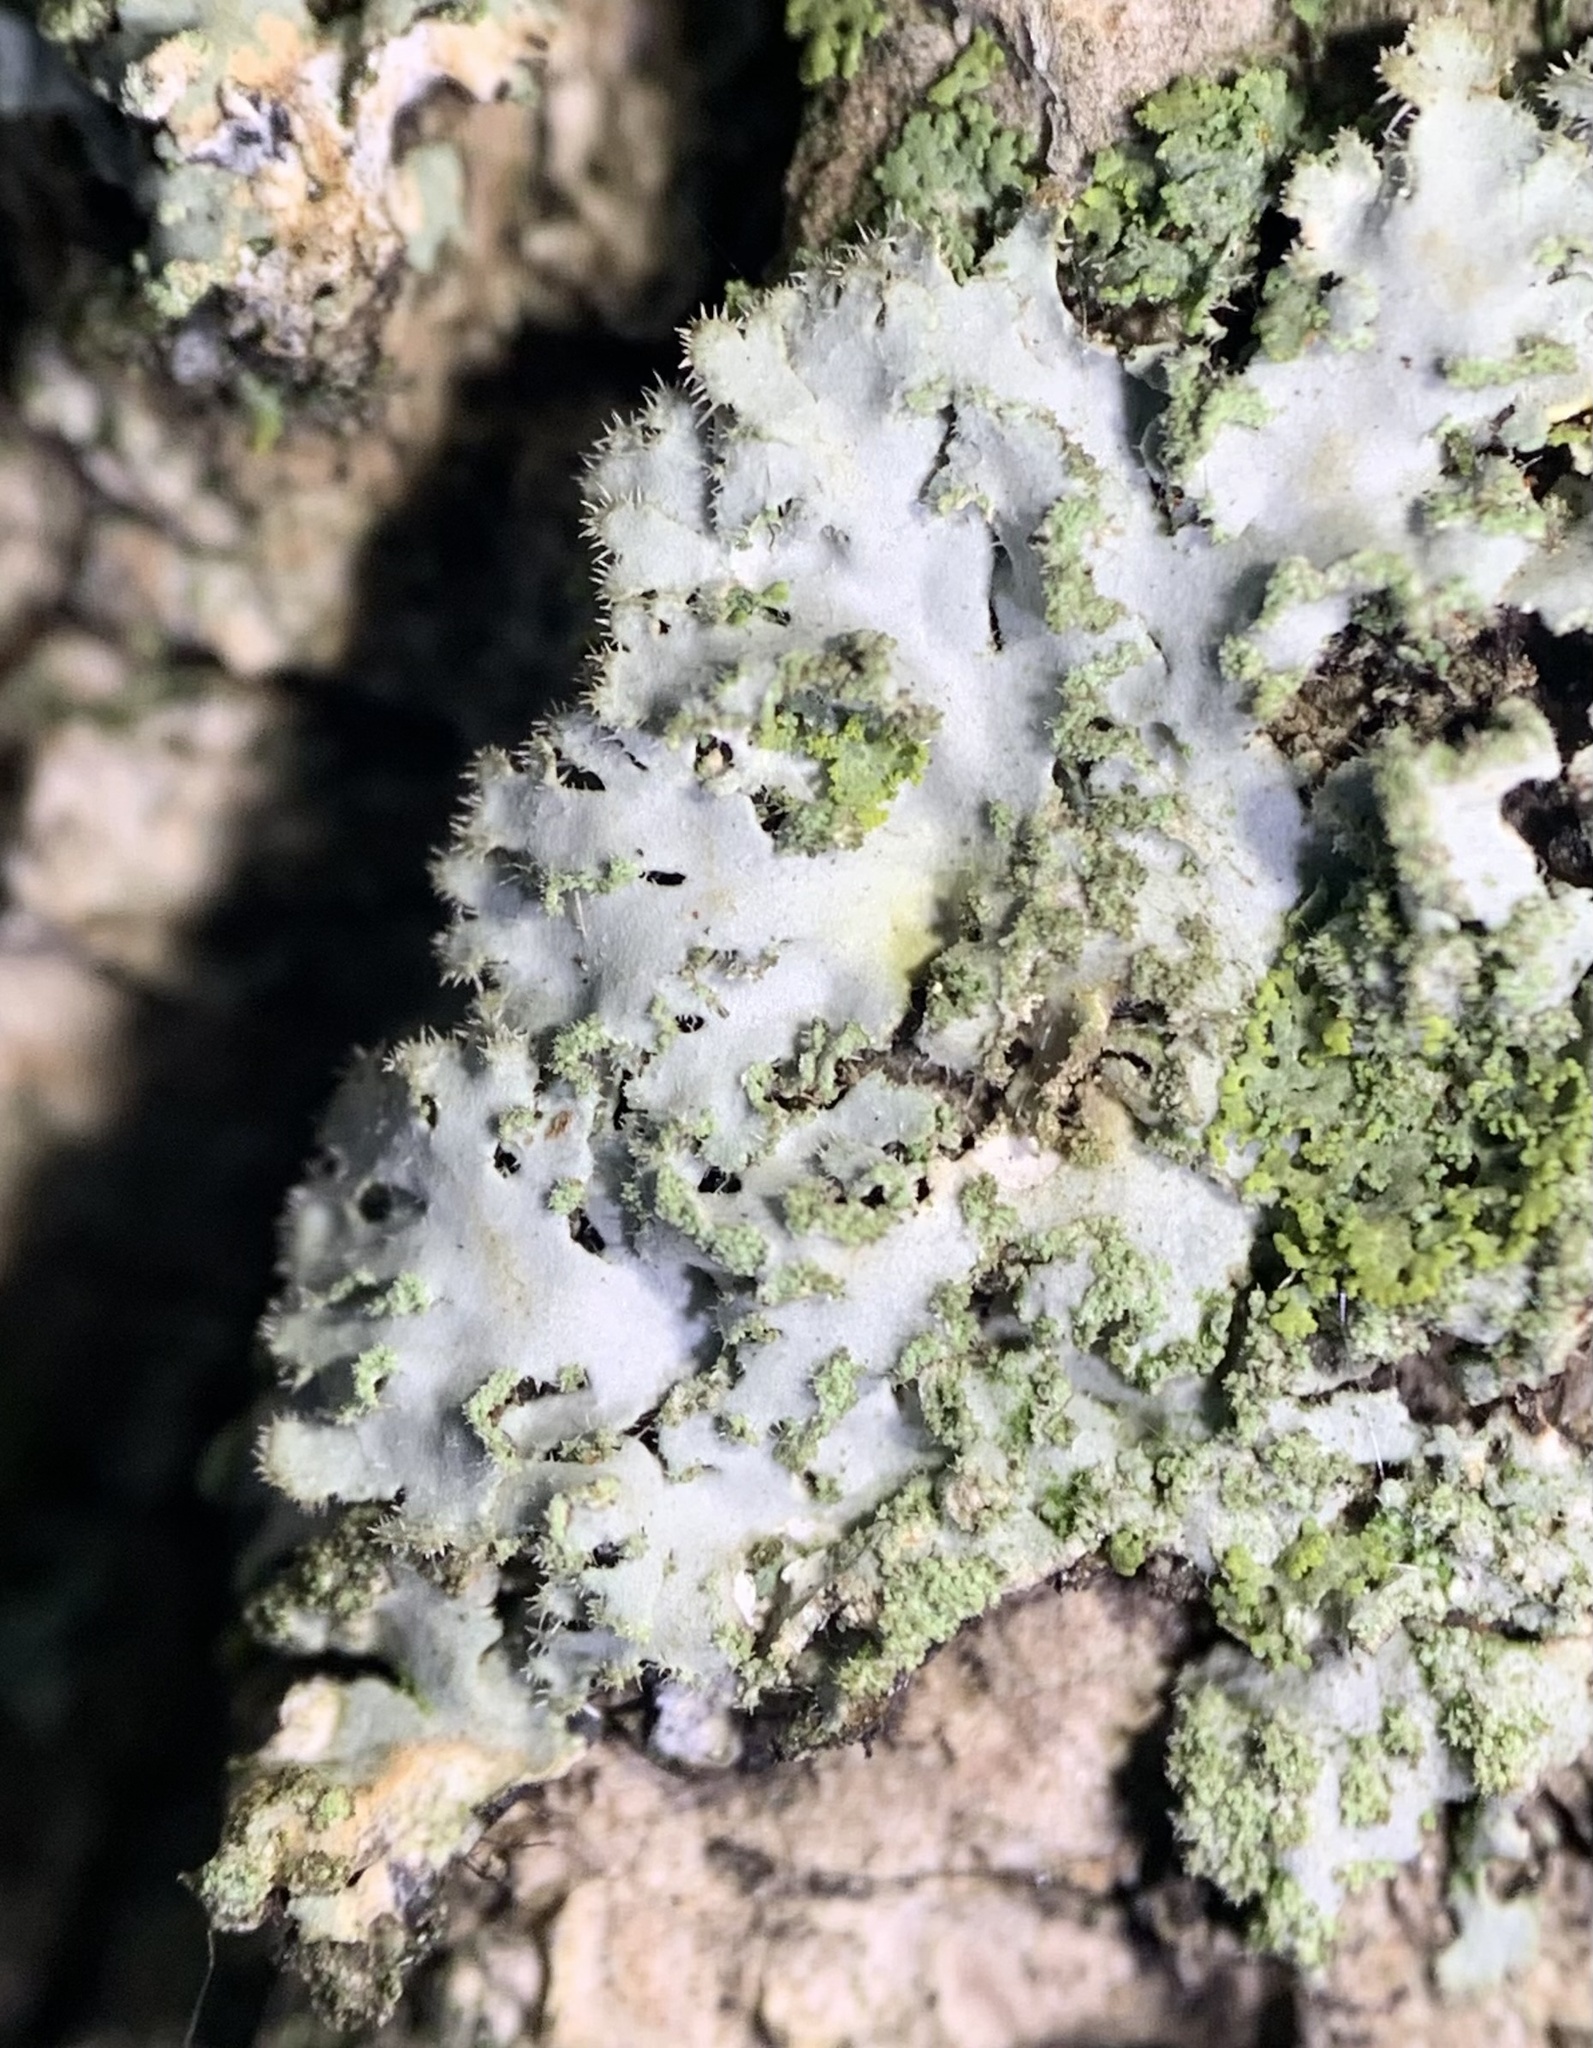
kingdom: Fungi
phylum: Ascomycota
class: Lecanoromycetes
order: Caliciales
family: Physciaceae
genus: Phaeophyscia
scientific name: Phaeophyscia hirsuta
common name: Hairy shadow lichen
